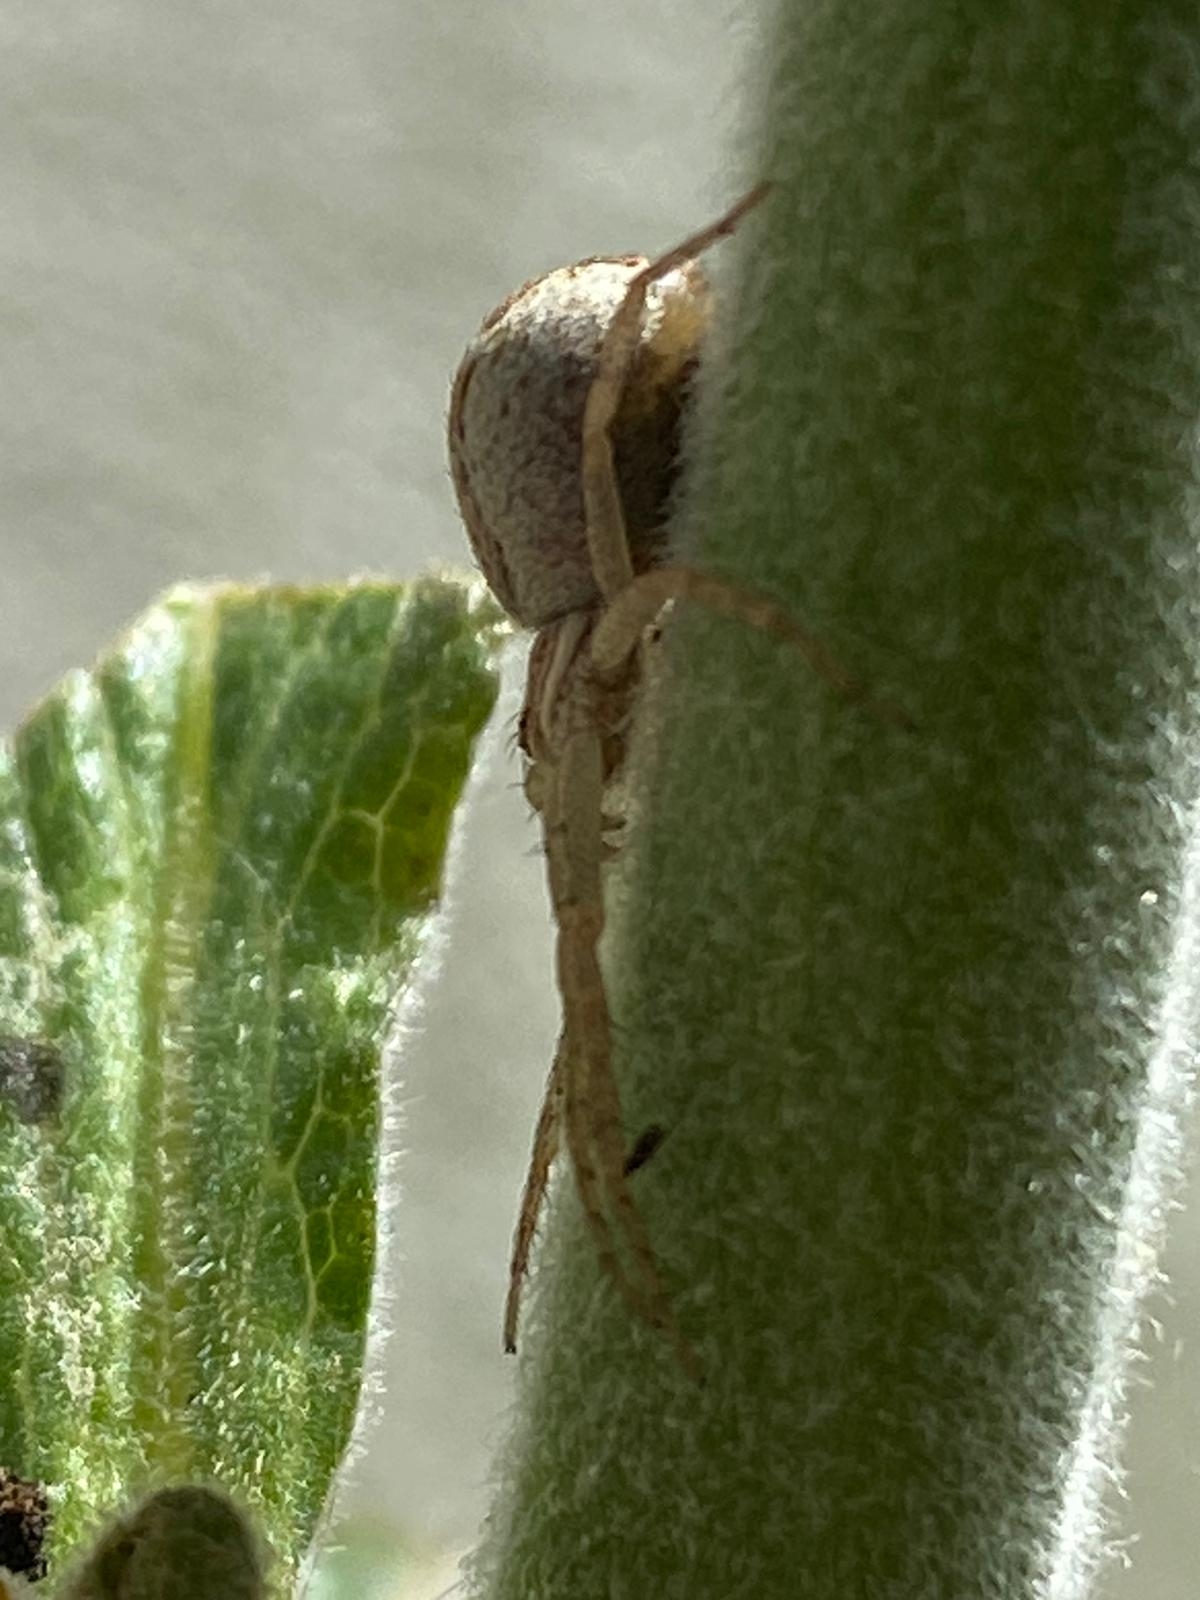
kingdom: Animalia
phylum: Arthropoda
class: Arachnida
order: Araneae
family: Philodromidae
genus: Philodromus
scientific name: Philodromus dispar
